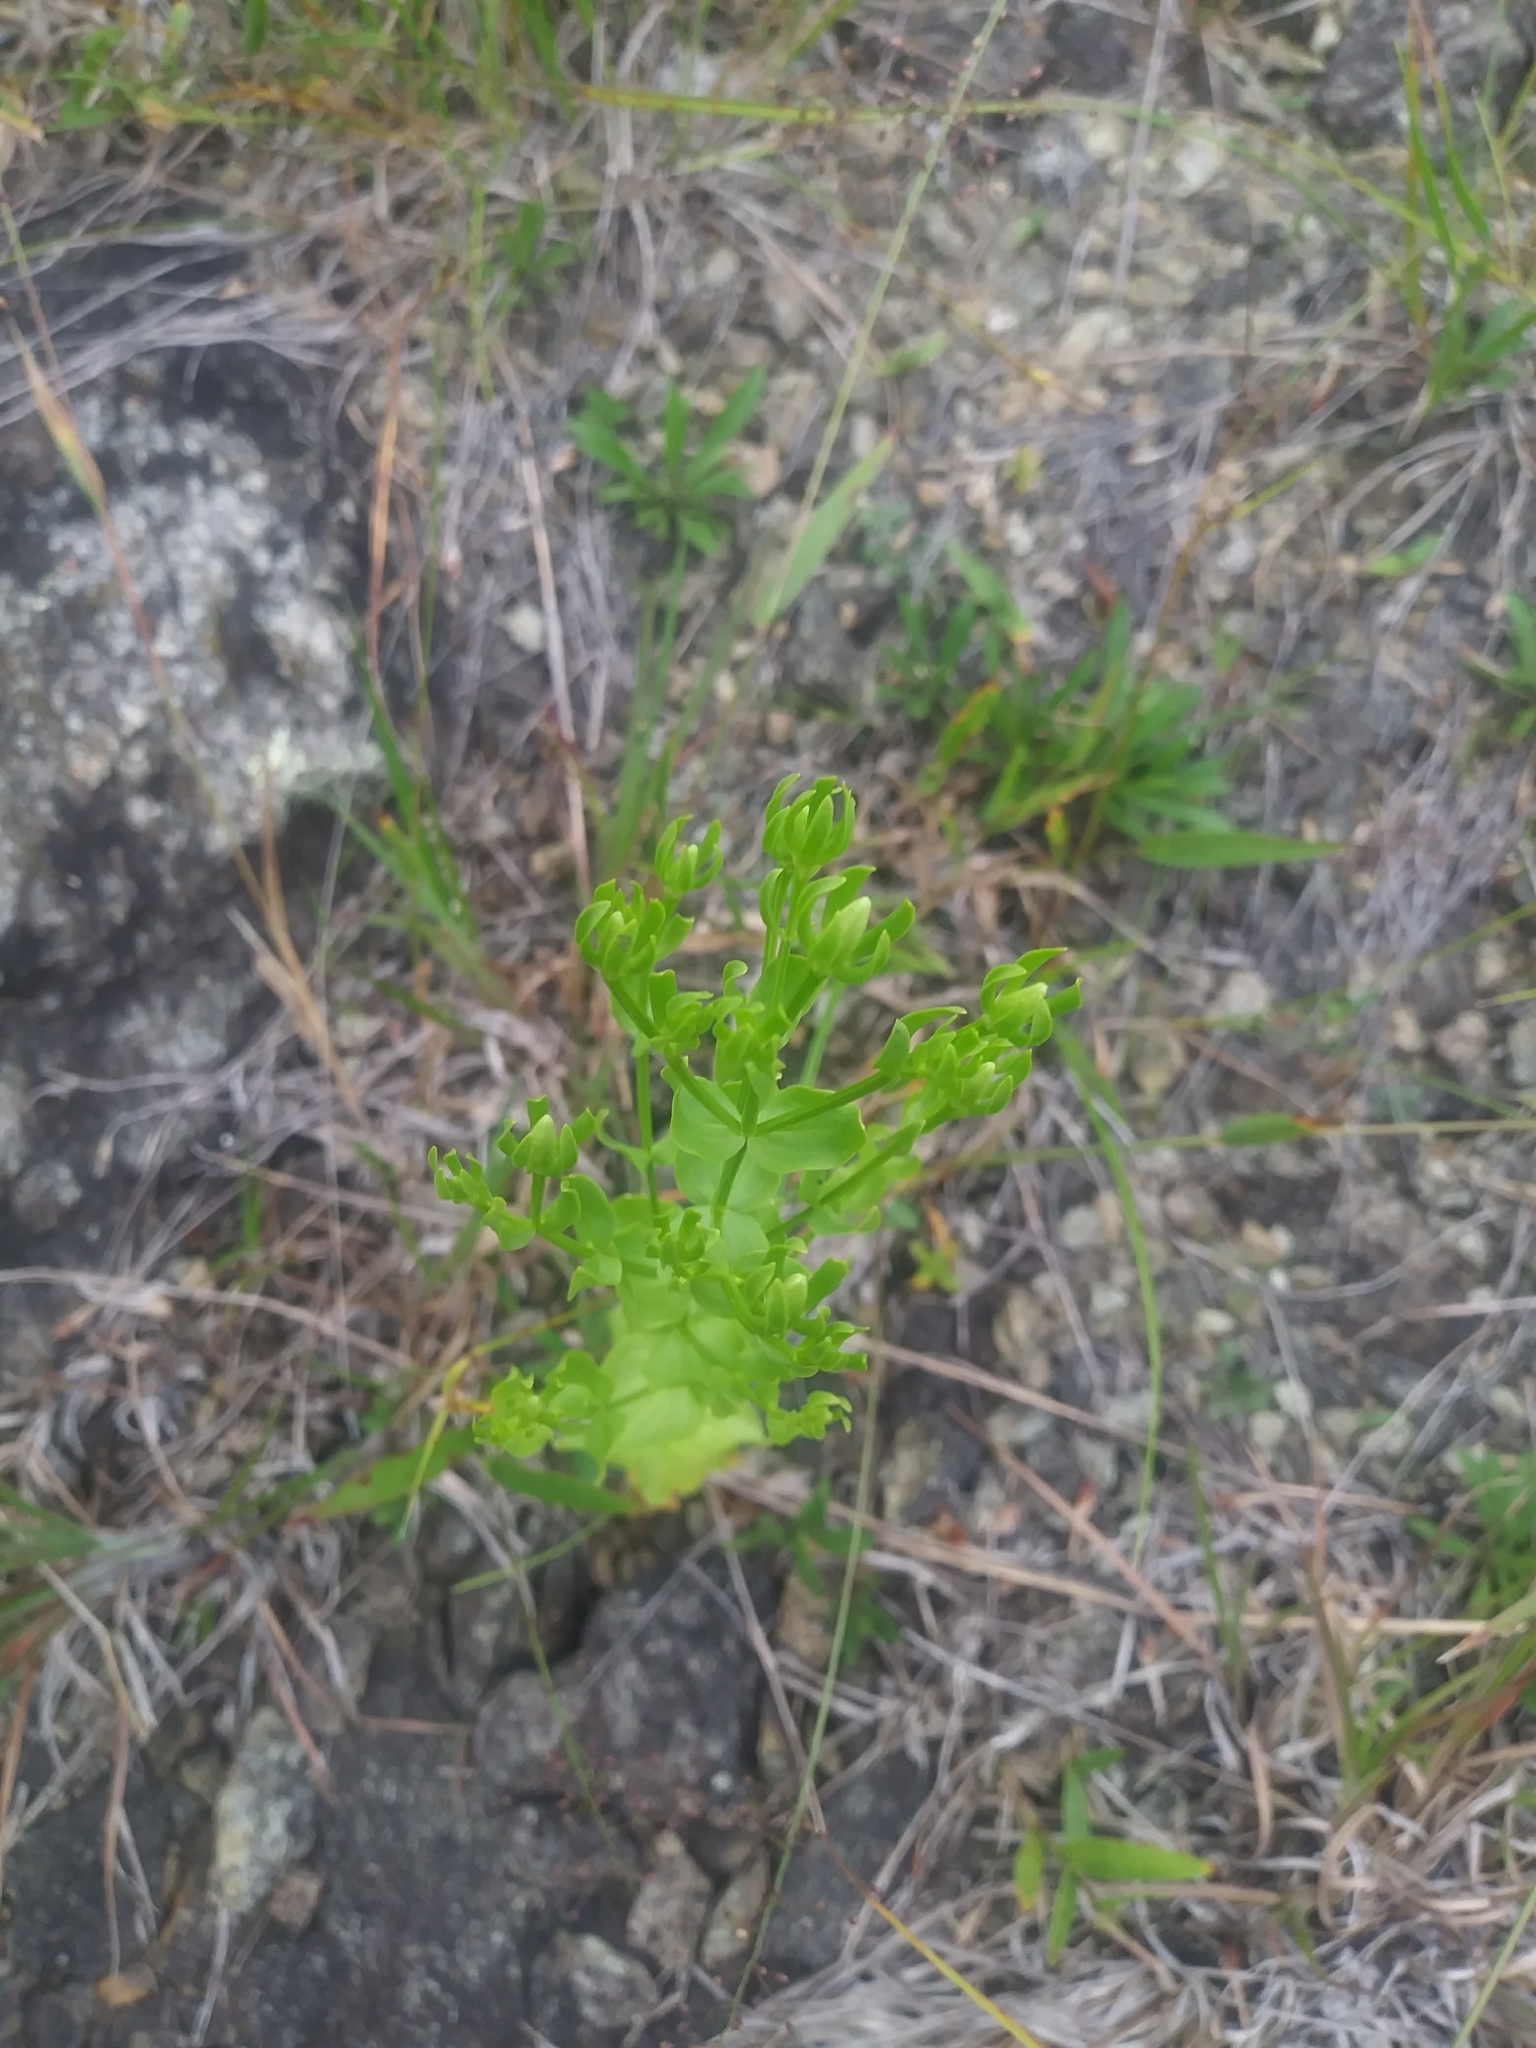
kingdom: Plantae
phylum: Tracheophyta
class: Magnoliopsida
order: Gentianales
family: Gentianaceae
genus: Sabatia
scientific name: Sabatia angularis
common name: Rose-pink
